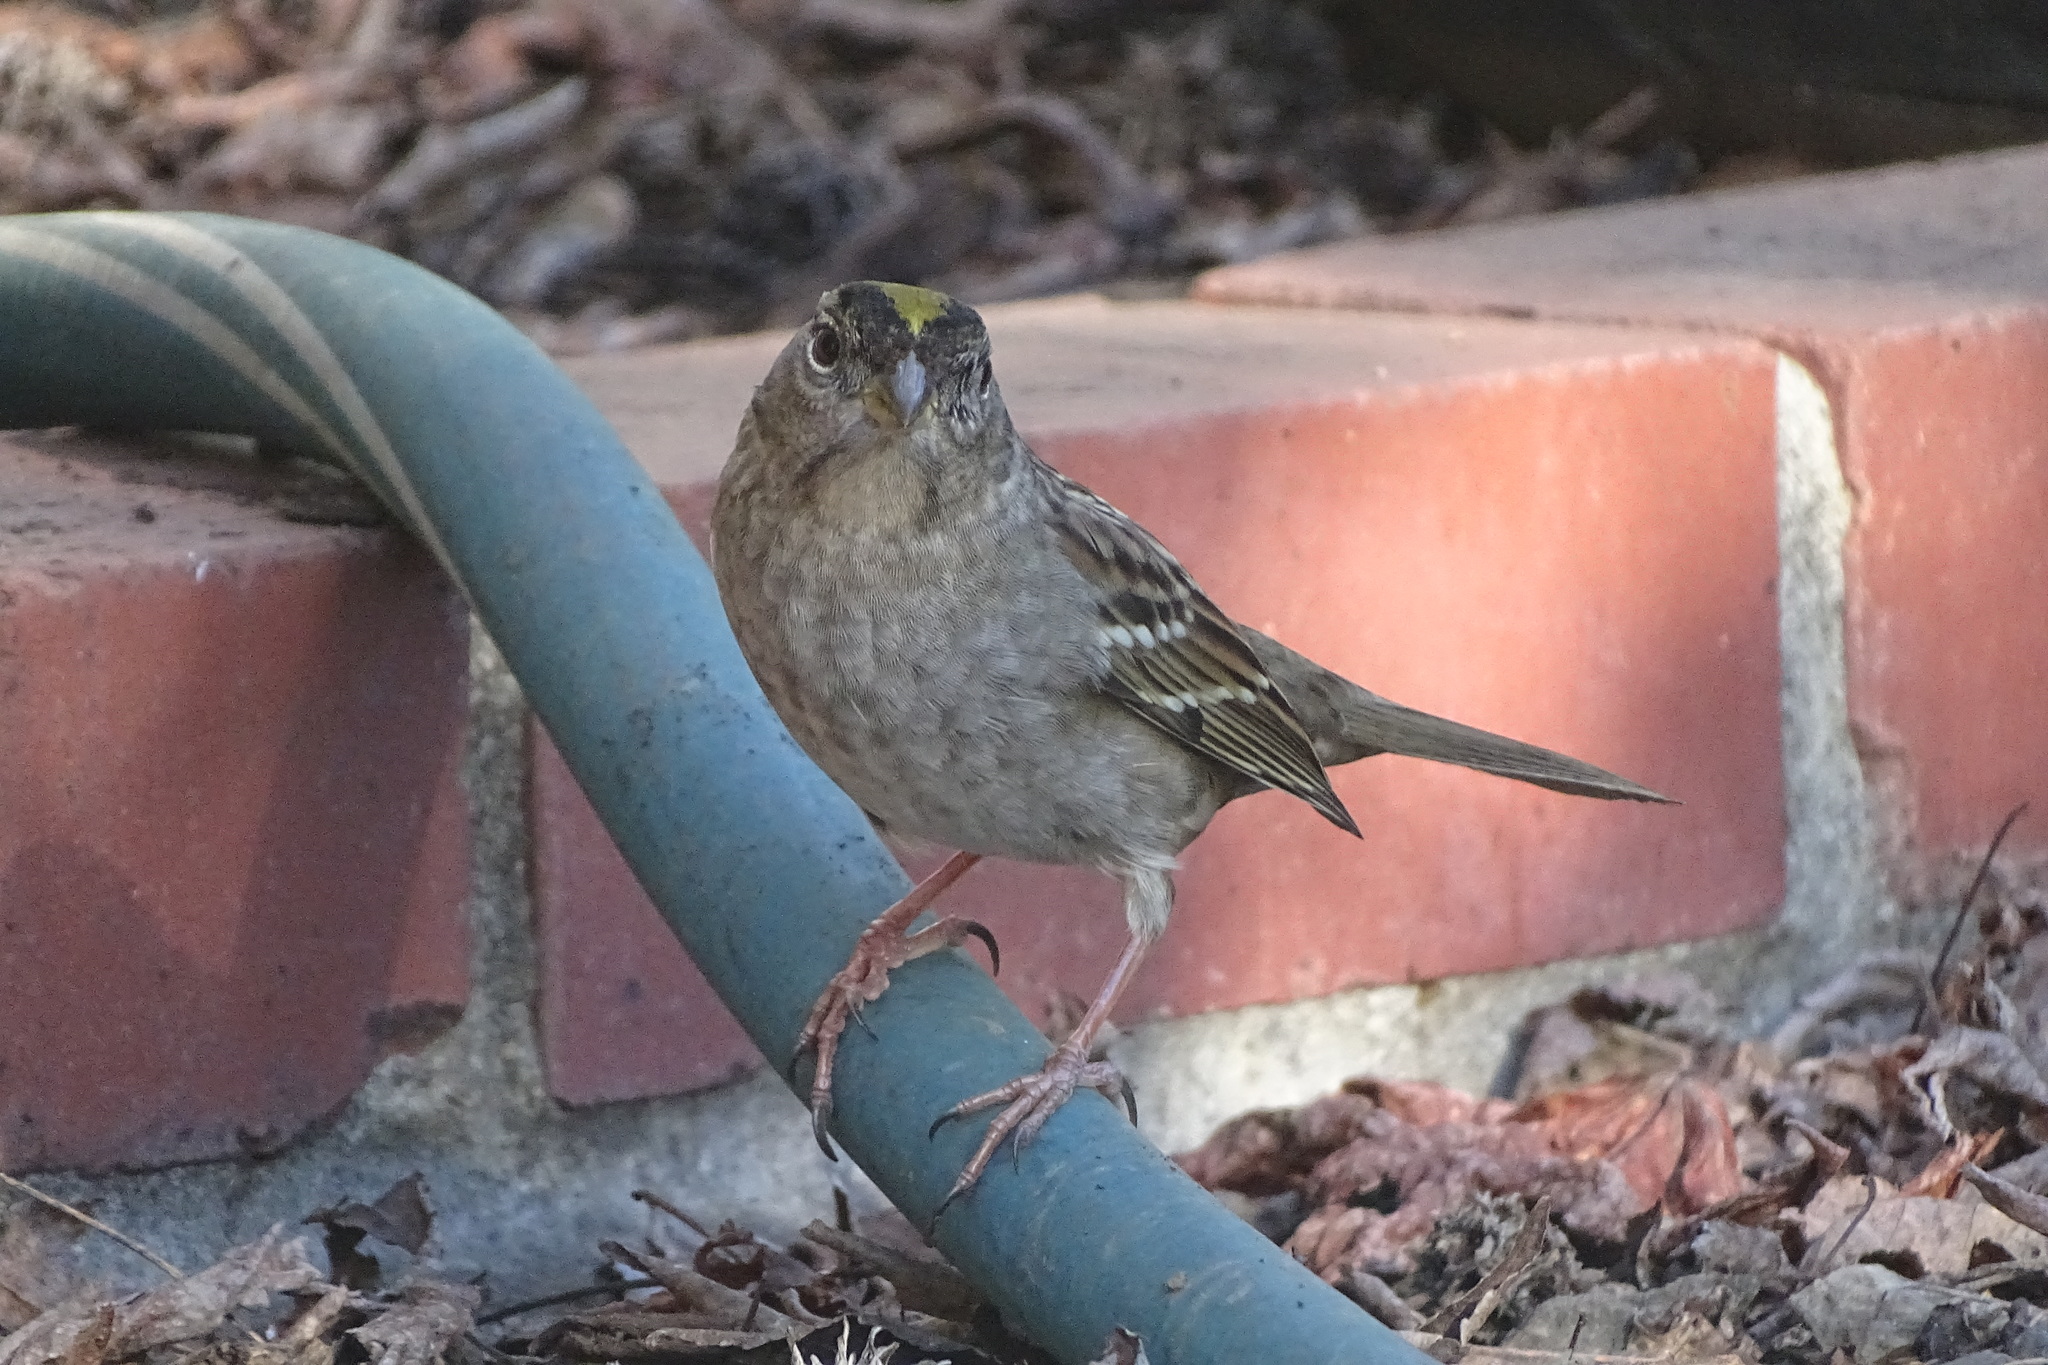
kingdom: Animalia
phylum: Chordata
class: Aves
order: Passeriformes
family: Passerellidae
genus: Zonotrichia
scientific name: Zonotrichia atricapilla
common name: Golden-crowned sparrow
